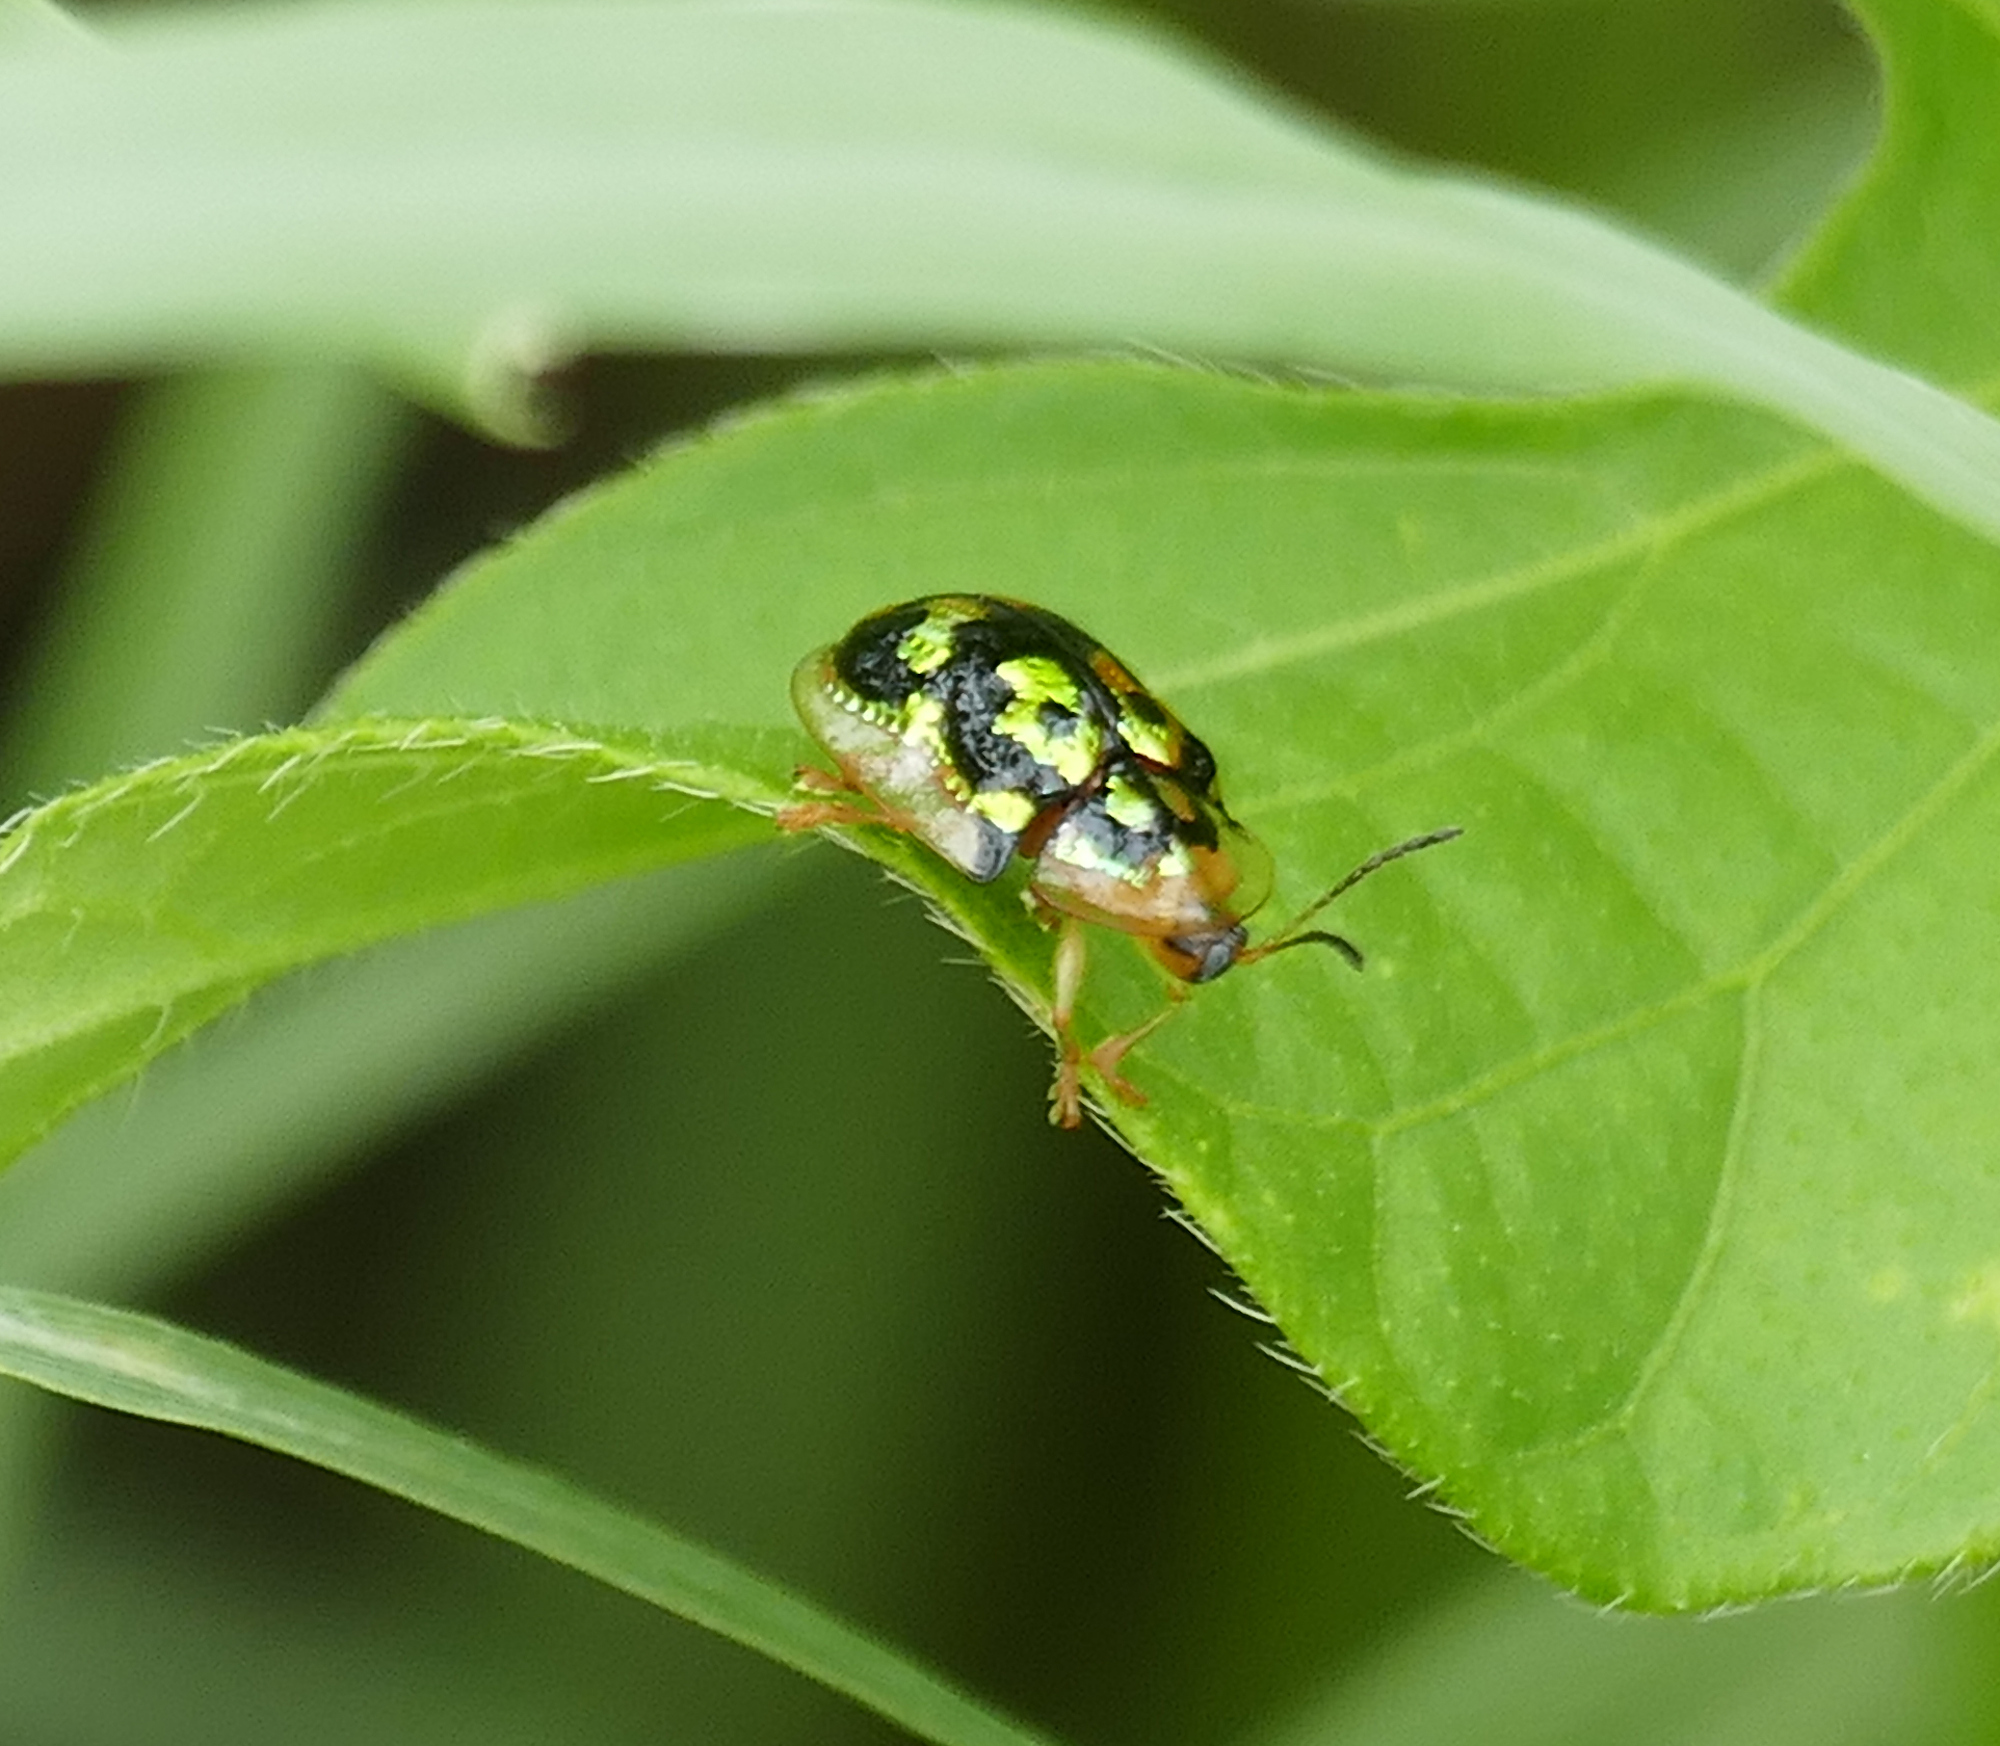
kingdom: Animalia
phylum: Arthropoda
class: Insecta
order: Coleoptera
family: Chrysomelidae
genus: Deloyala
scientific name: Deloyala lecontei
